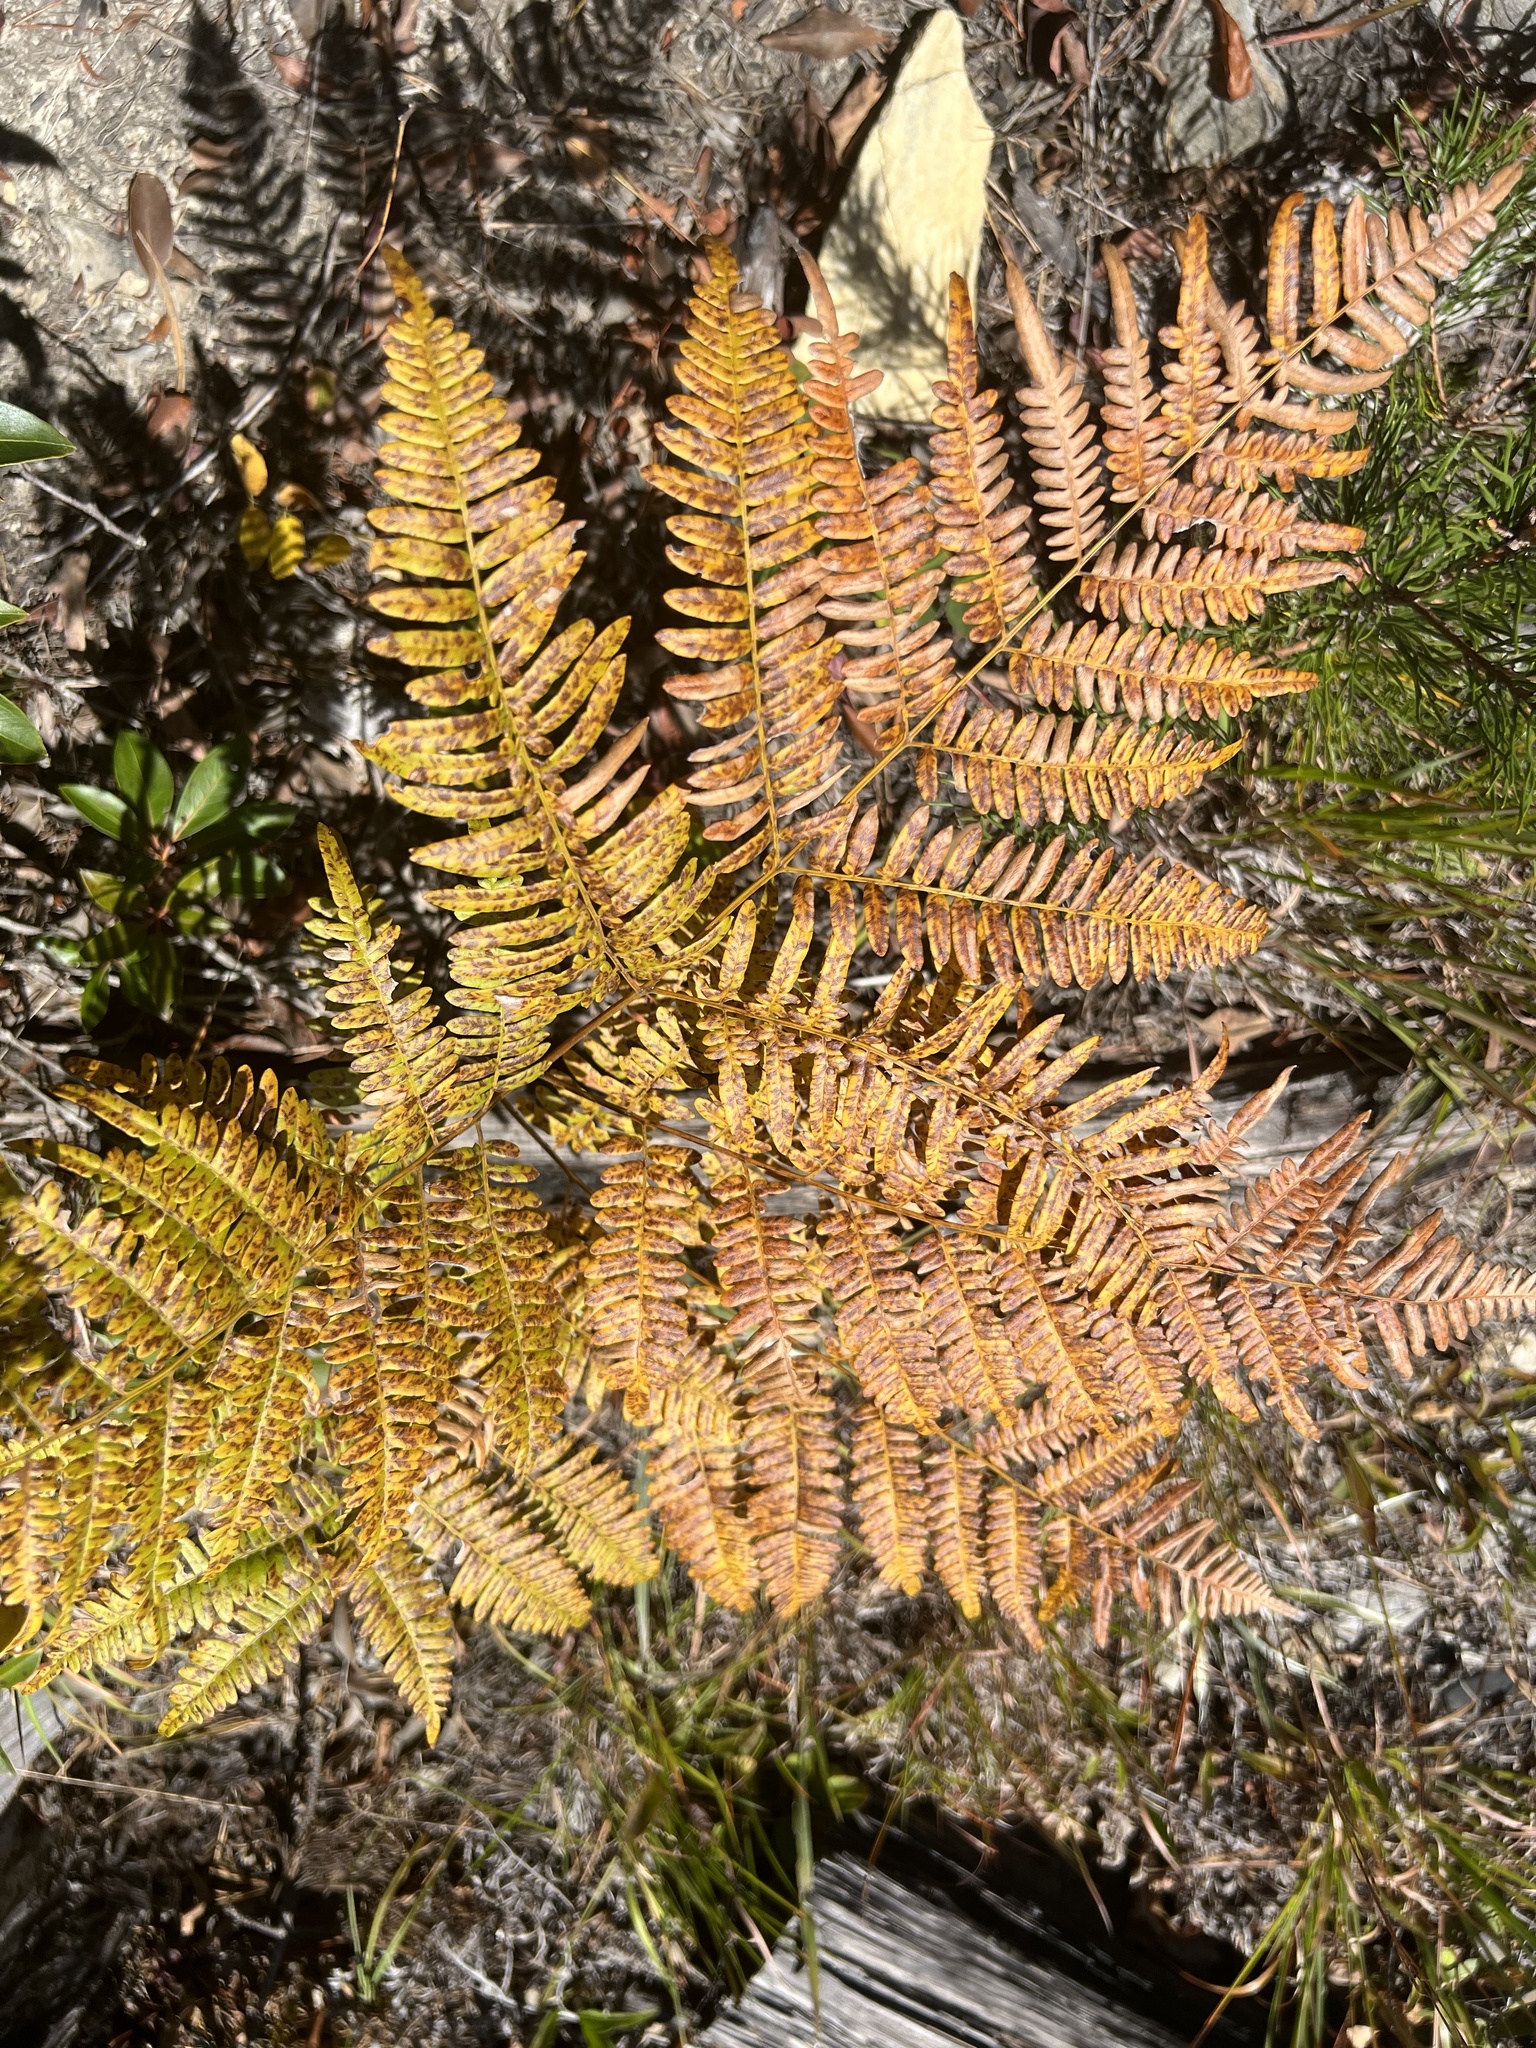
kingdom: Plantae
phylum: Tracheophyta
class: Polypodiopsida
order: Polypodiales
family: Dennstaedtiaceae
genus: Pteridium
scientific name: Pteridium aquilinum
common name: Bracken
